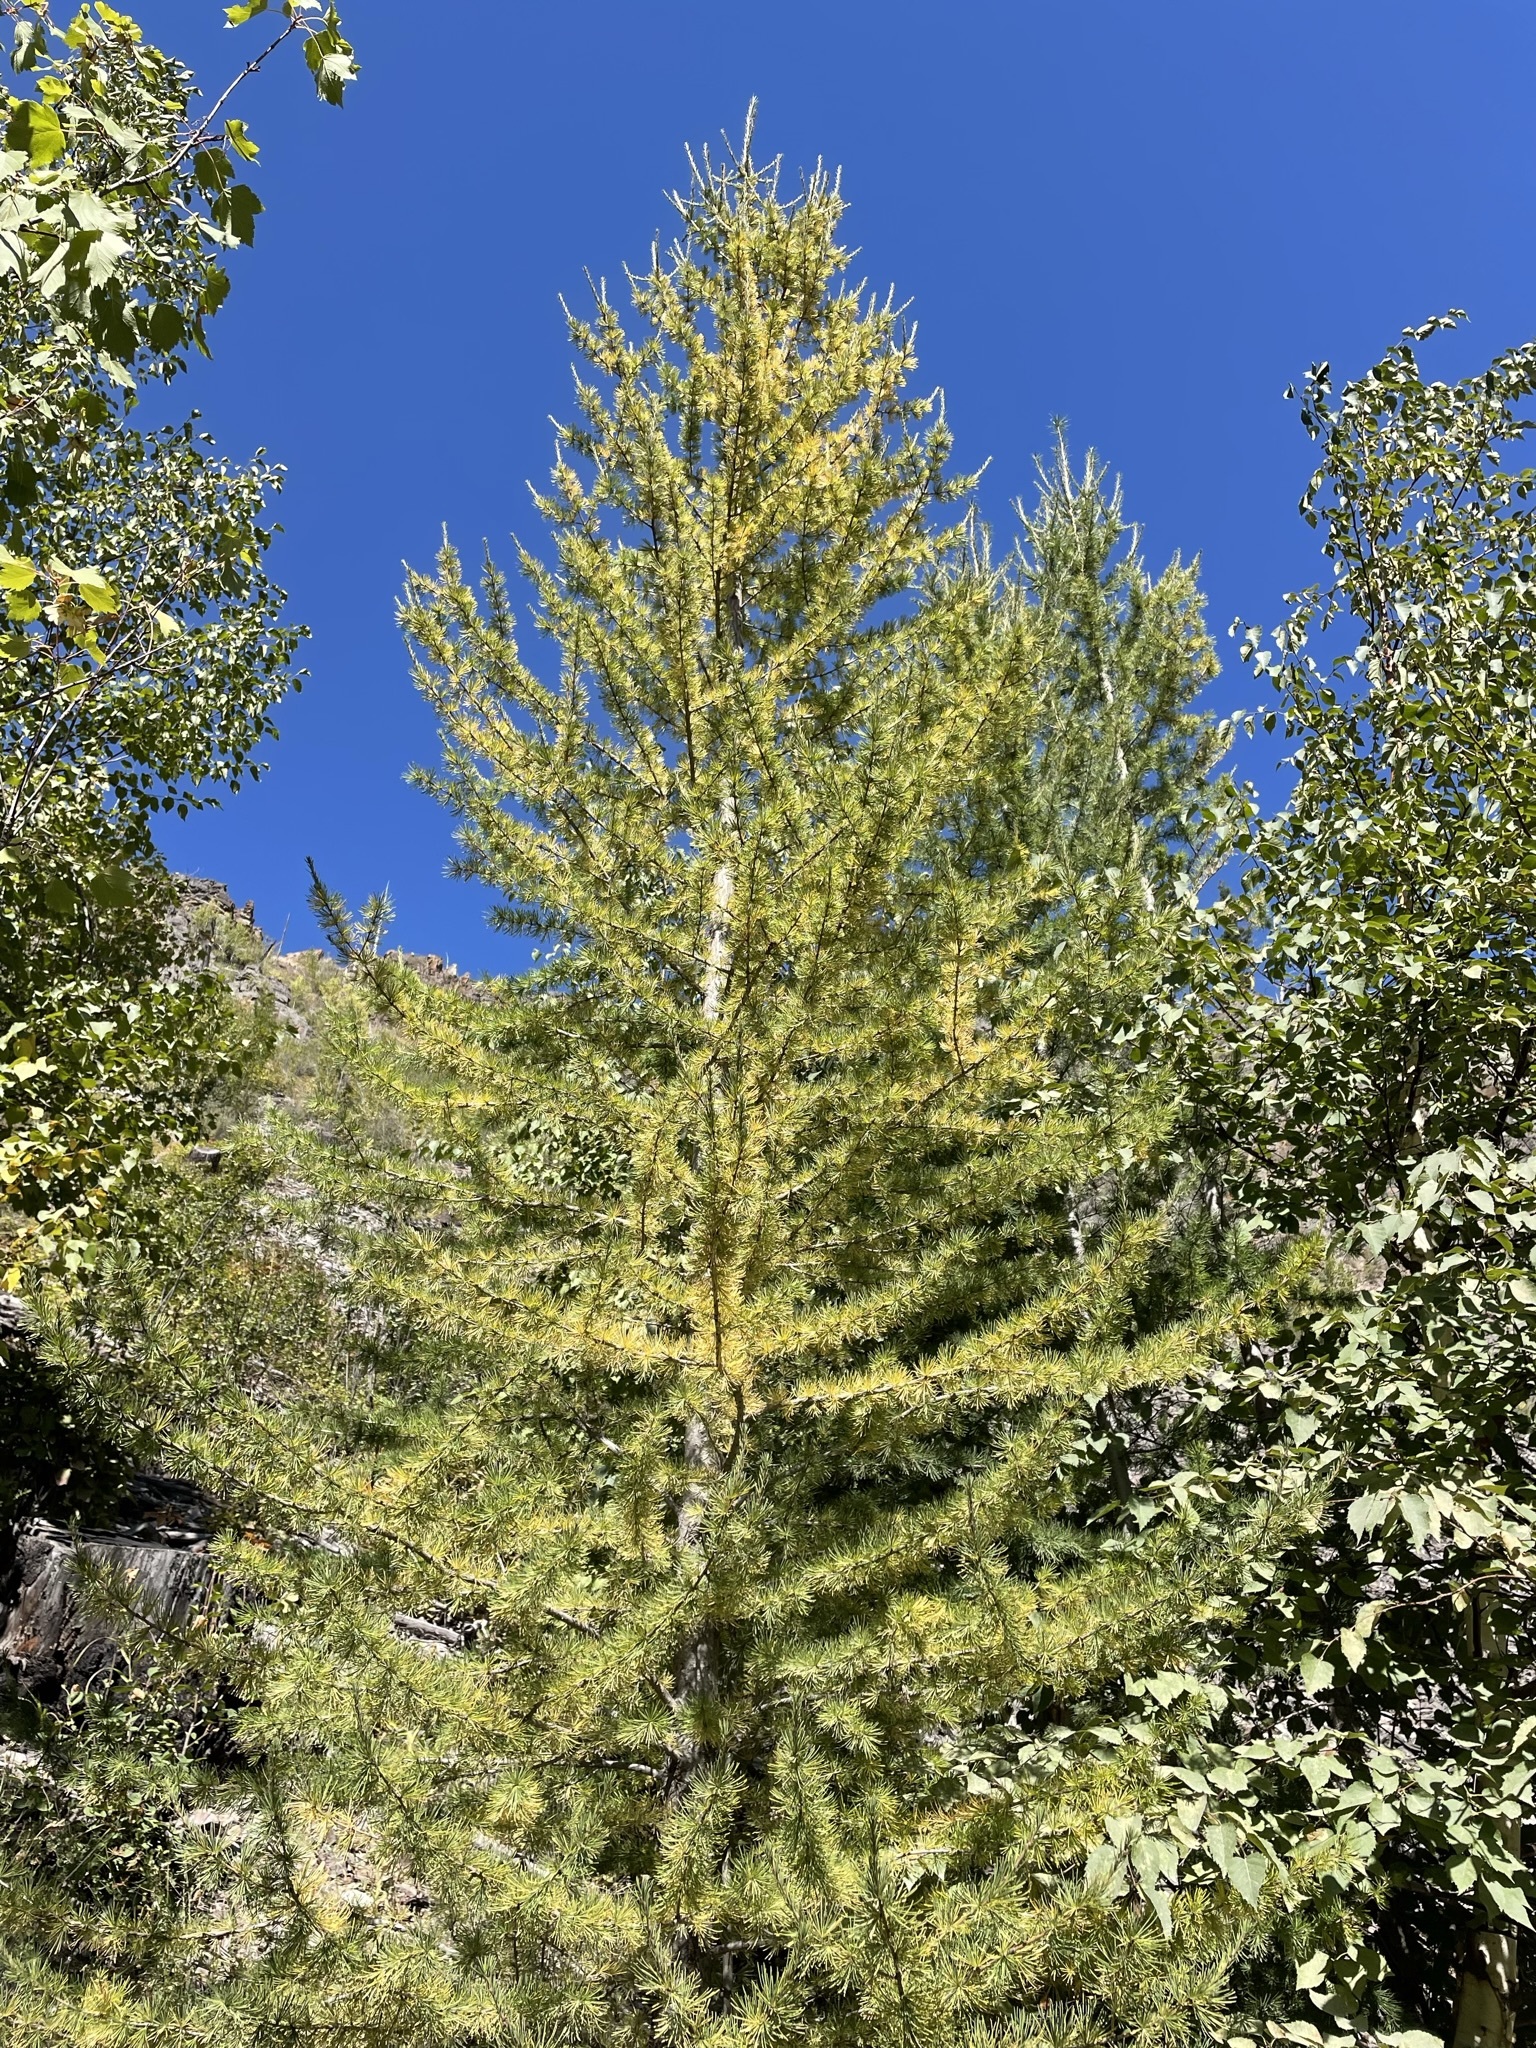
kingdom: Plantae
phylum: Tracheophyta
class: Pinopsida
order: Pinales
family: Pinaceae
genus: Larix
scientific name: Larix occidentalis
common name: Western larch
